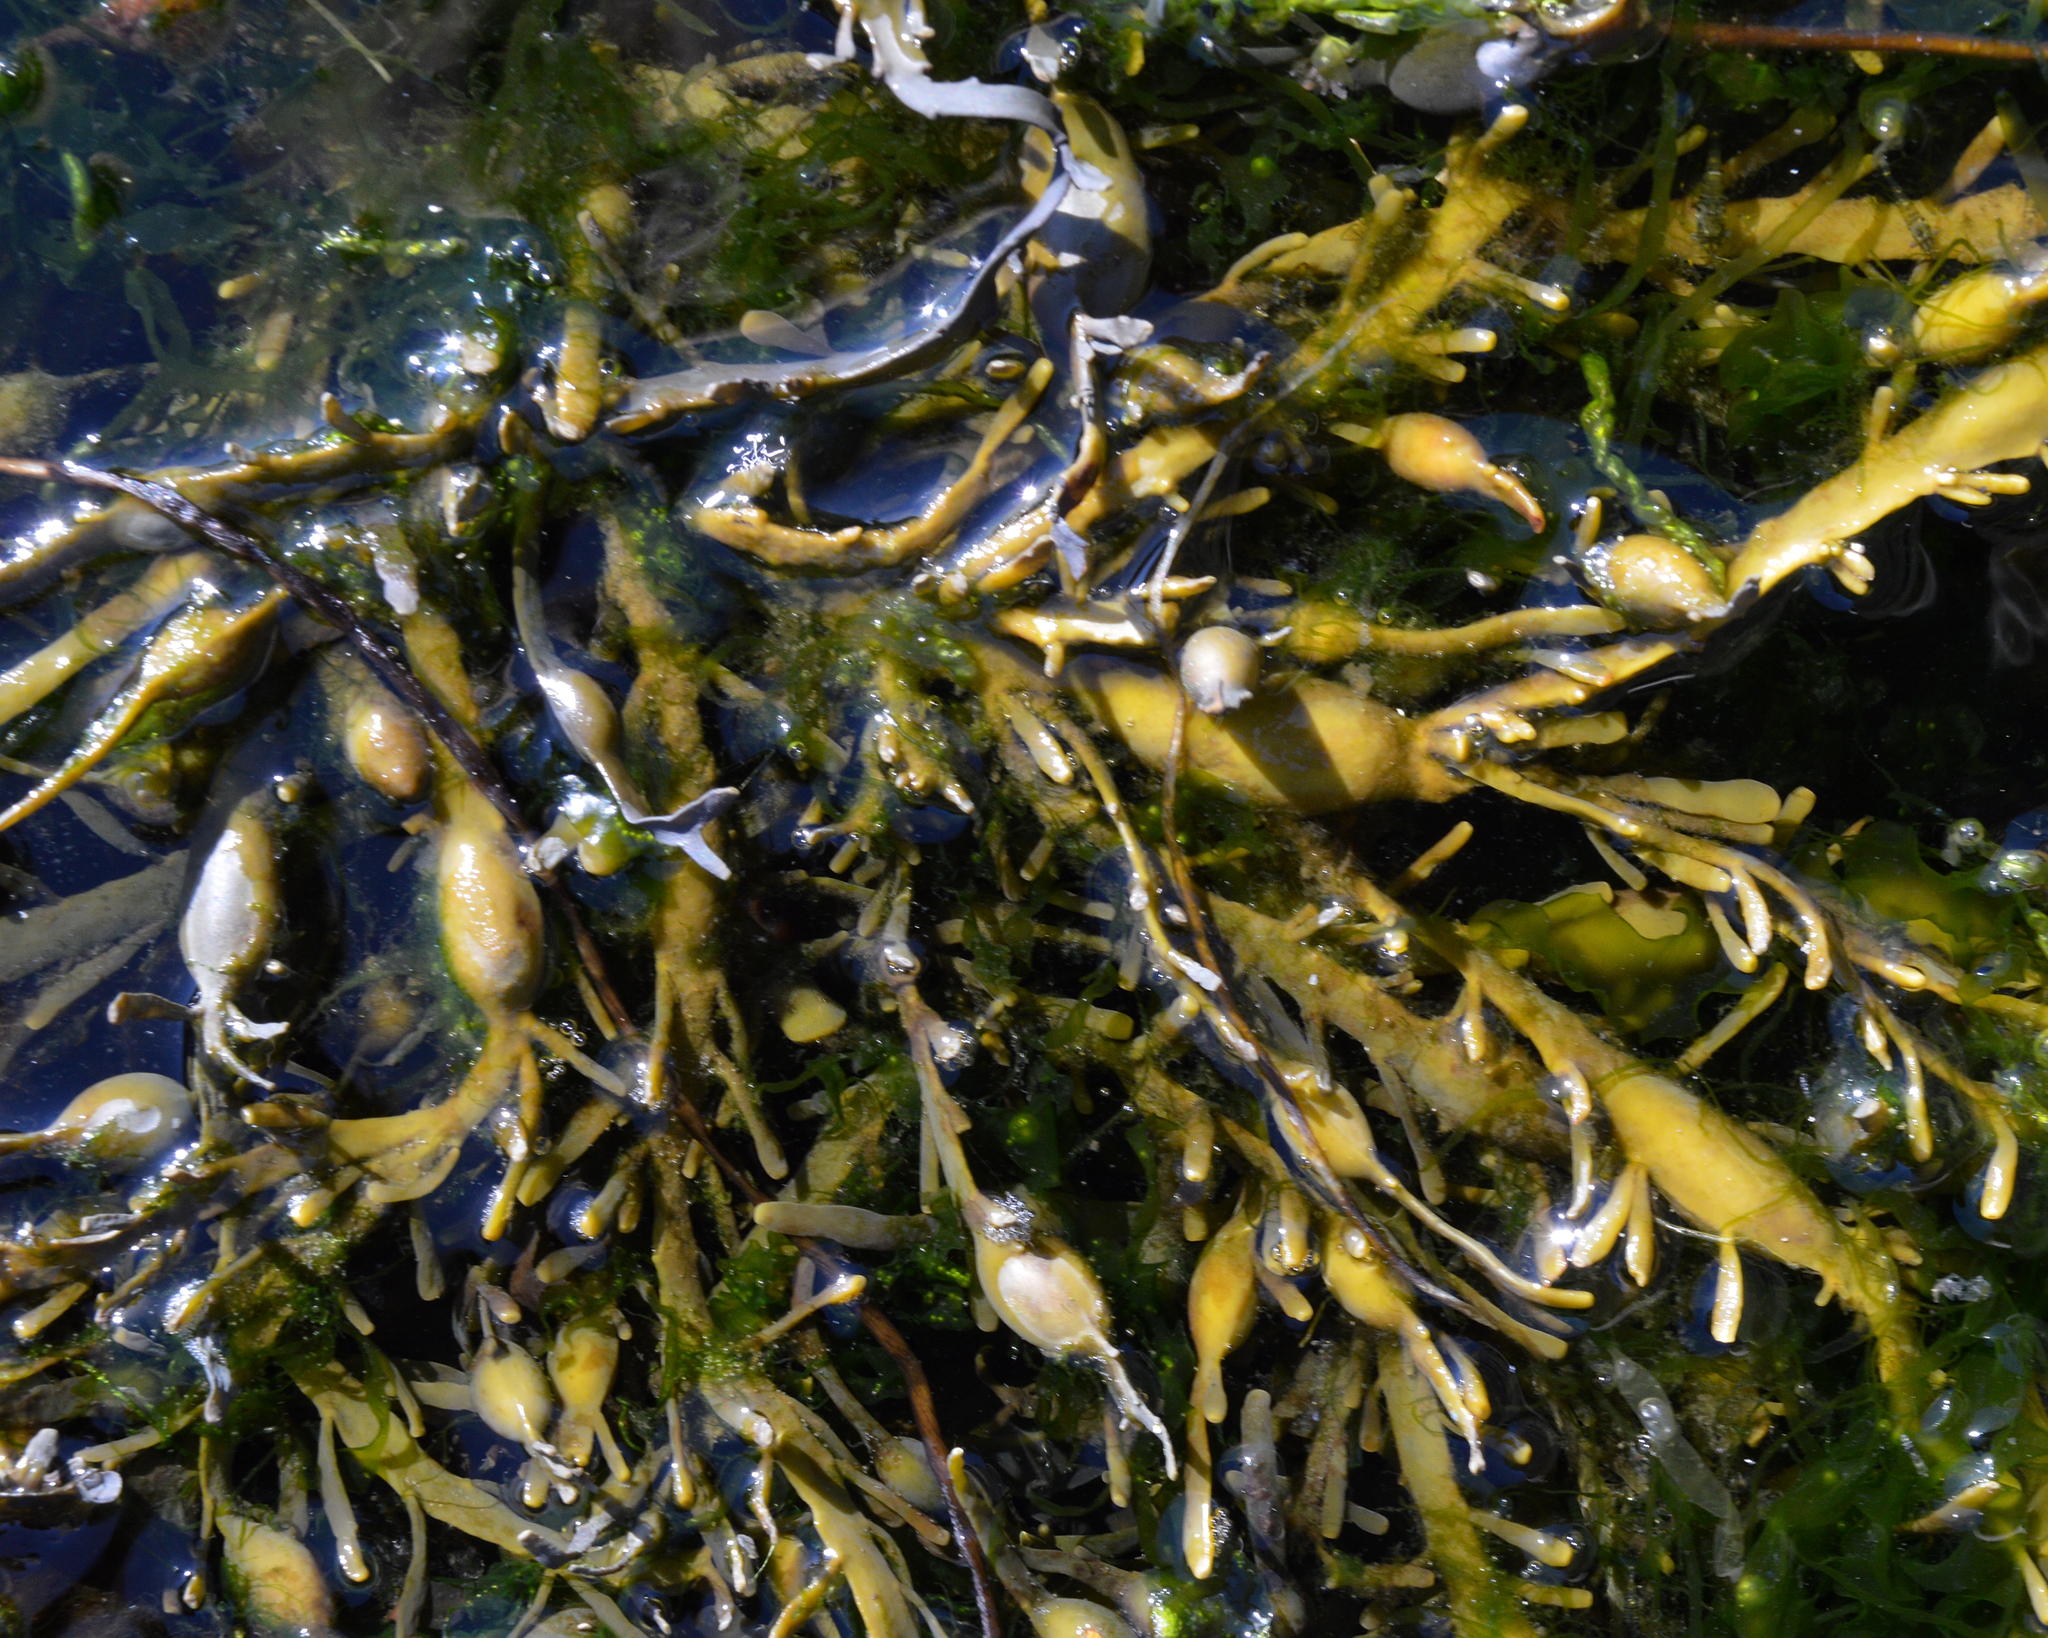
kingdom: Chromista
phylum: Ochrophyta
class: Phaeophyceae
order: Fucales
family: Fucaceae
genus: Ascophyllum
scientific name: Ascophyllum nodosum
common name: Knotted wrack
